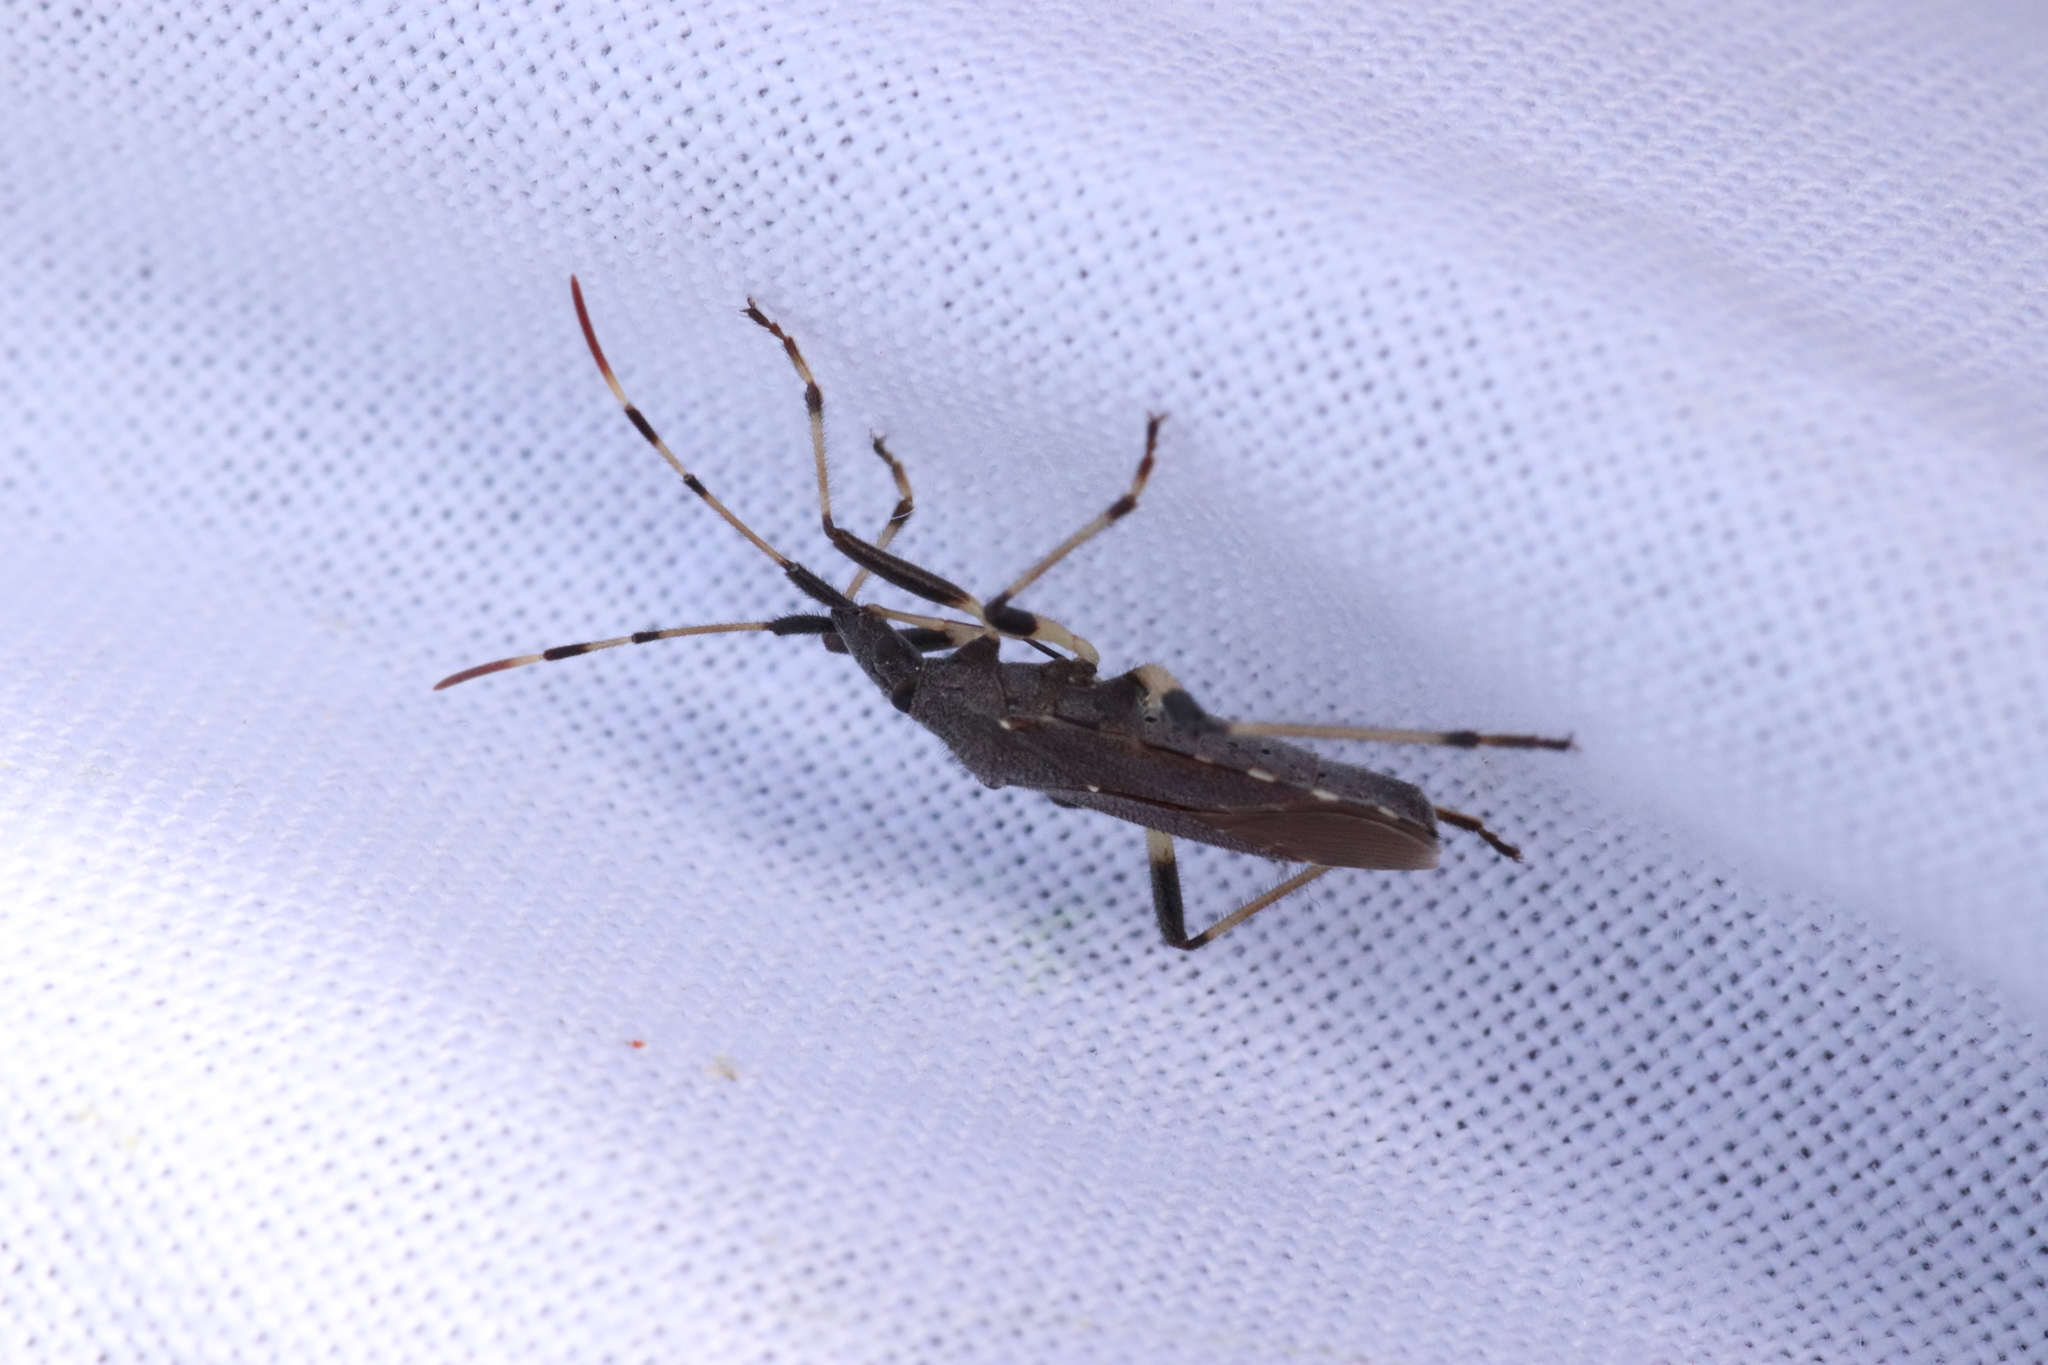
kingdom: Animalia
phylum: Arthropoda
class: Insecta
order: Hemiptera
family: Stenocephalidae
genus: Dicranocephalus
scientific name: Dicranocephalus albipes
